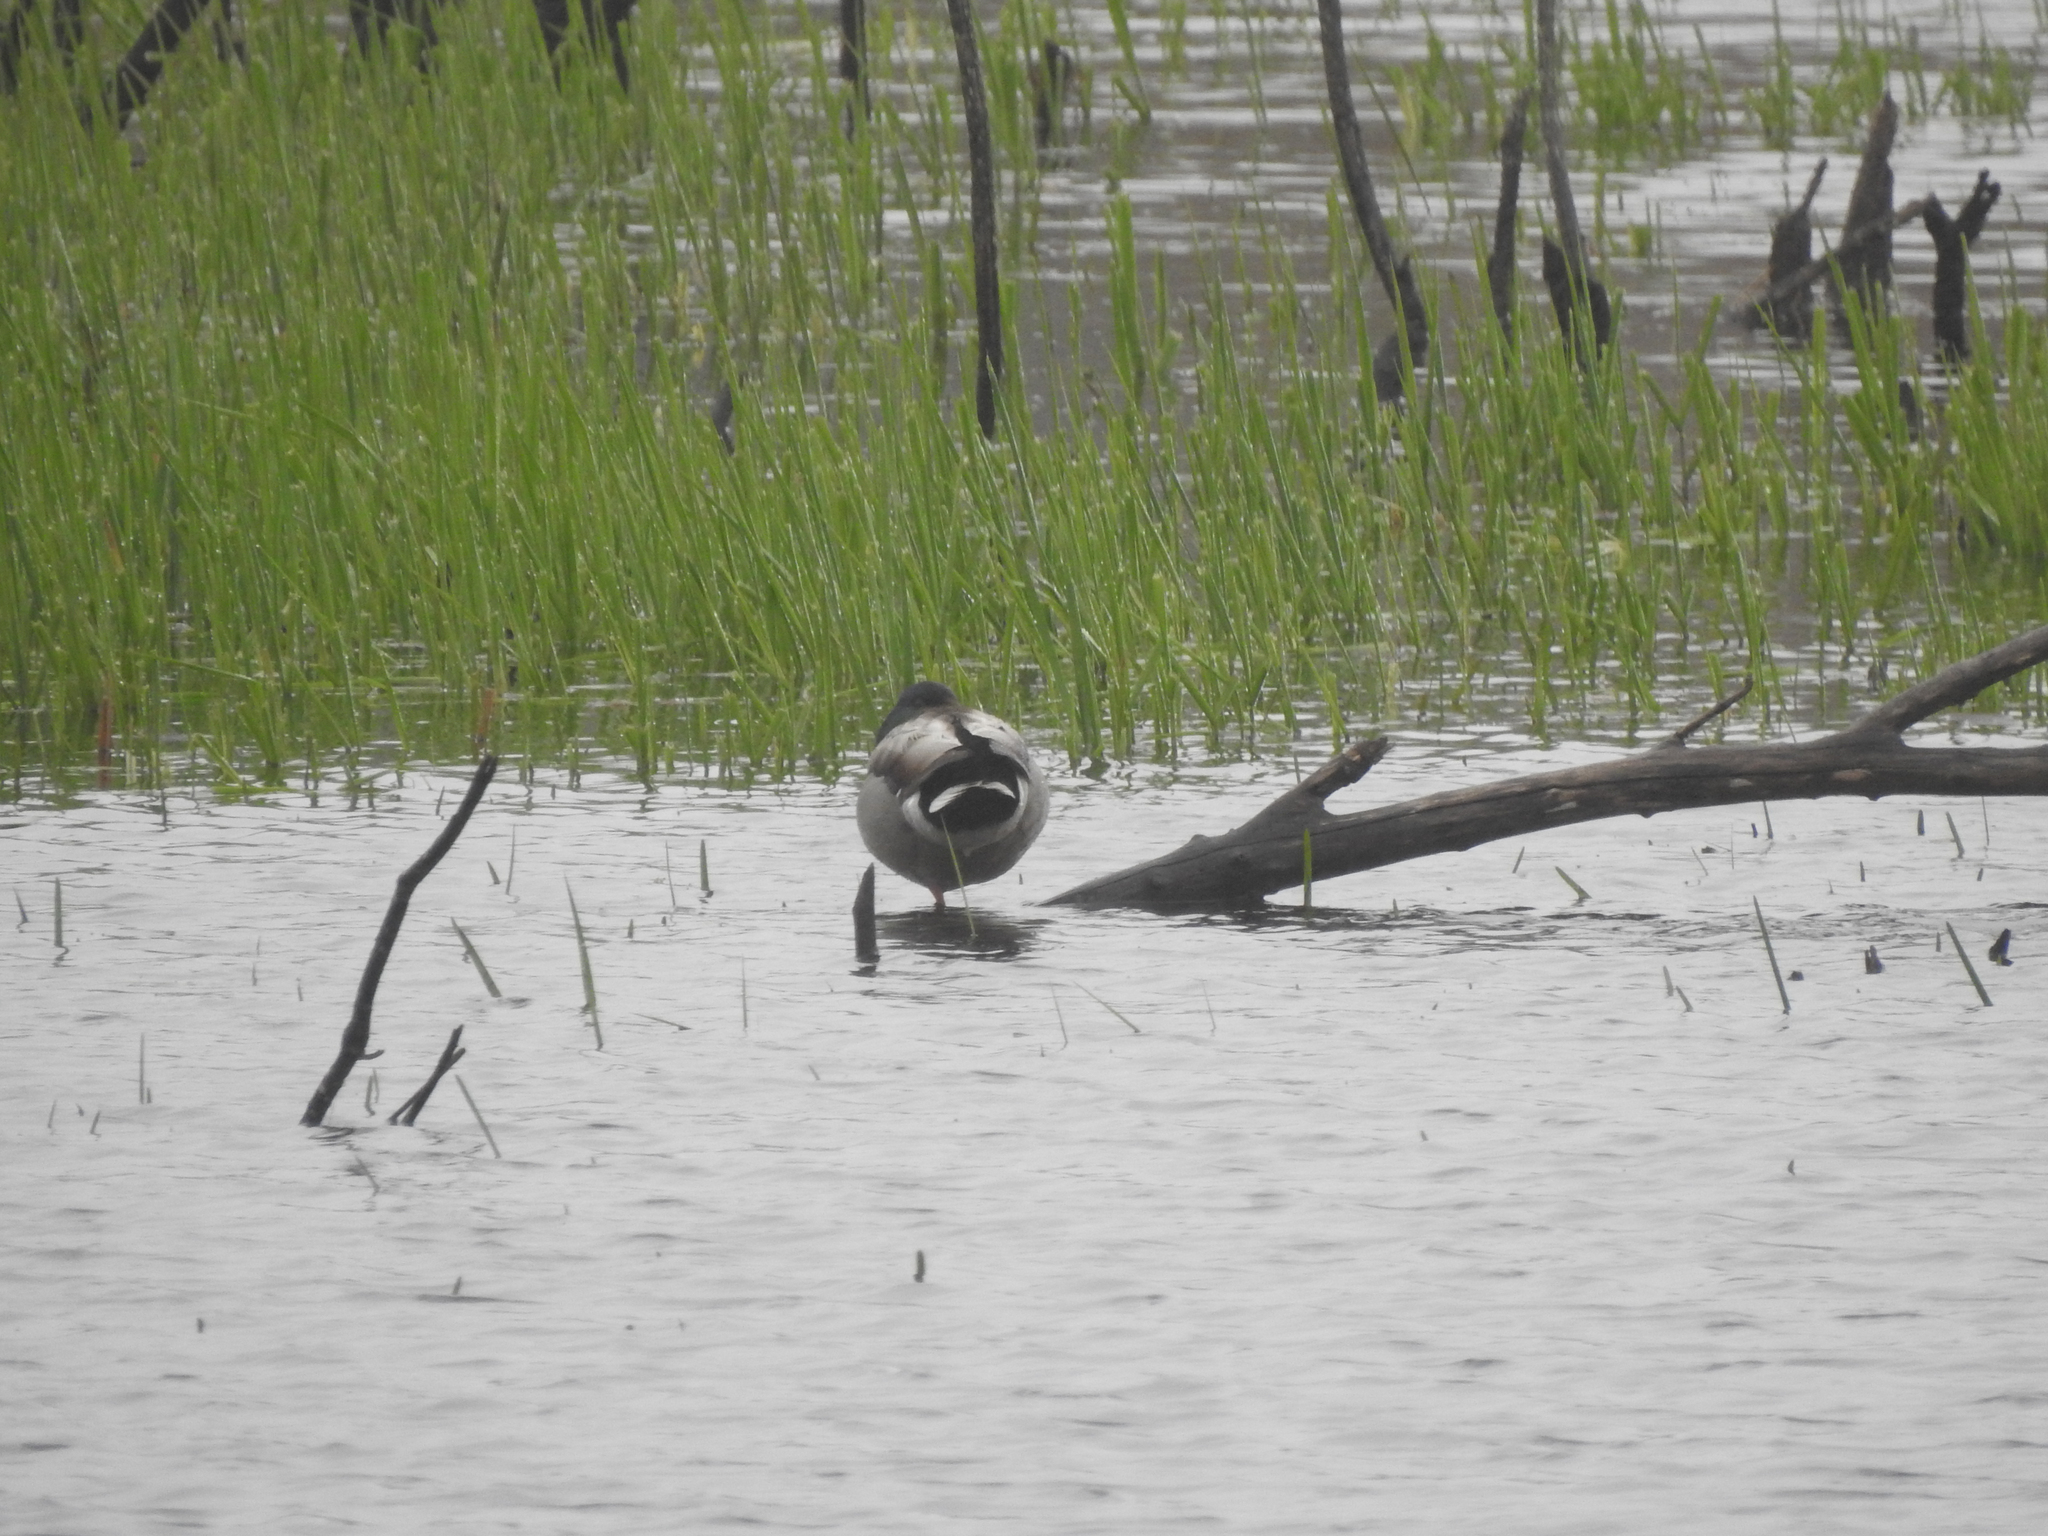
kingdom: Animalia
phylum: Chordata
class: Aves
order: Anseriformes
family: Anatidae
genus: Anas
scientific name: Anas platyrhynchos
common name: Mallard
